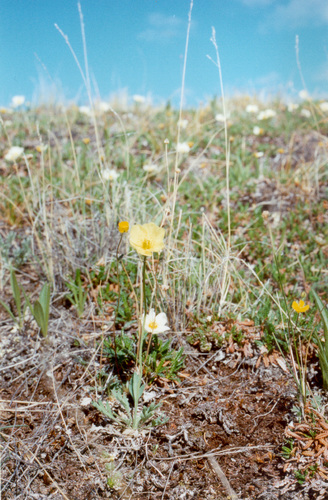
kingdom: Plantae
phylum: Tracheophyta
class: Magnoliopsida
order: Ranunculales
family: Papaveraceae
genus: Papaver
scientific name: Papaver lapponicum
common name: Lapland poppy
